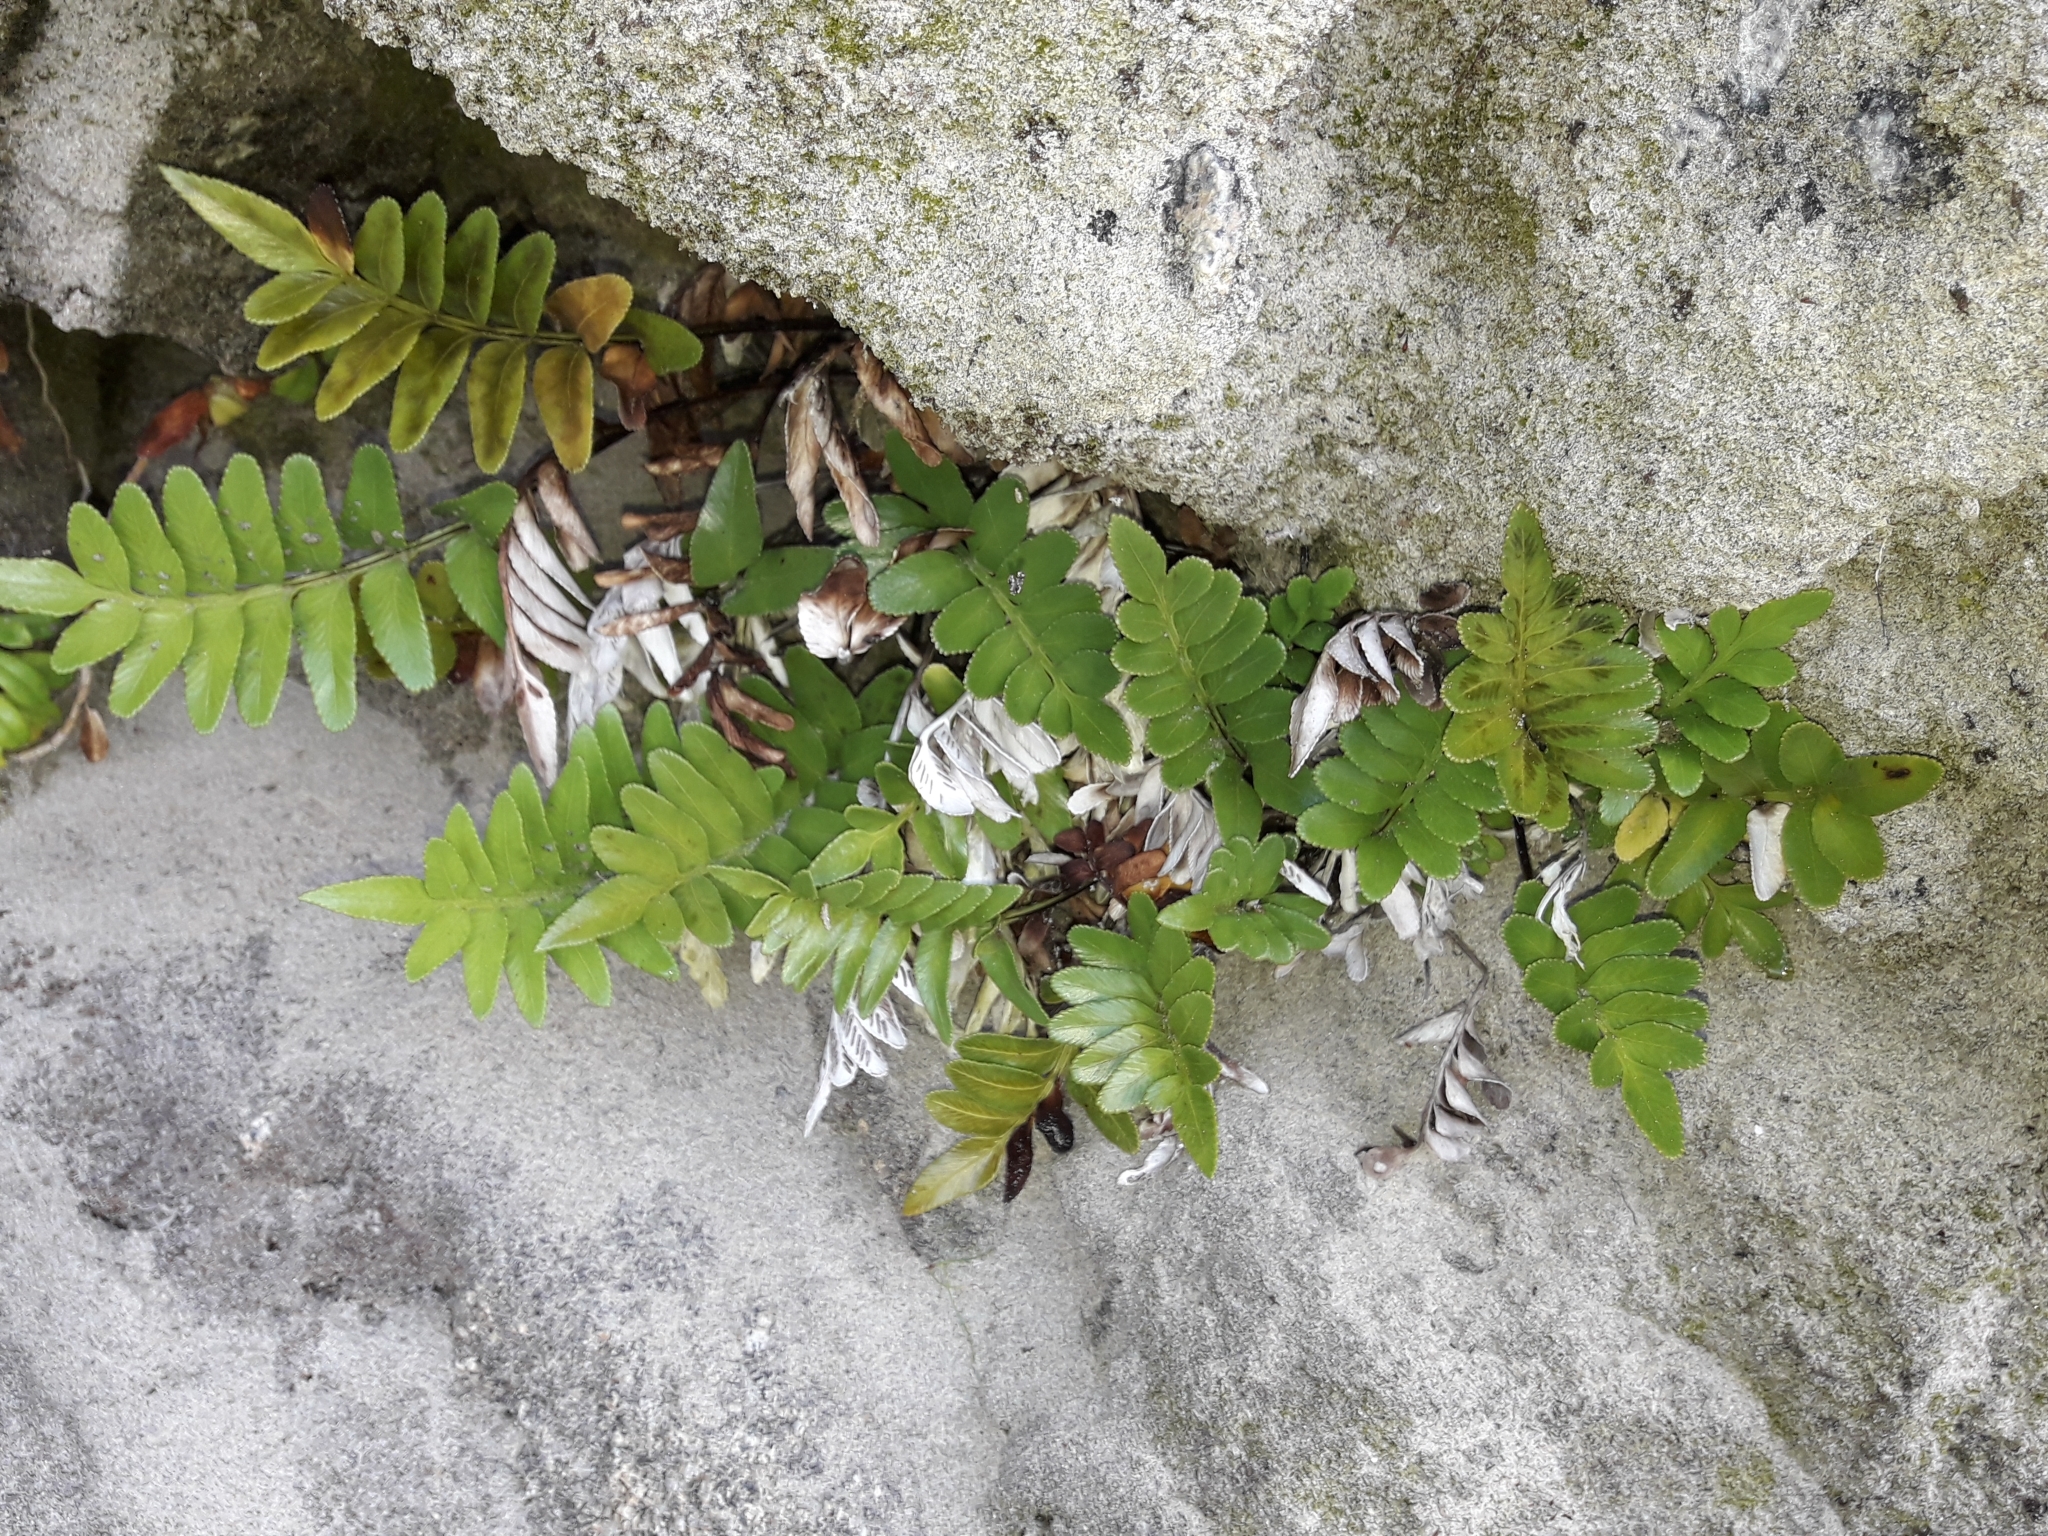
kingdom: Plantae
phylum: Tracheophyta
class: Polypodiopsida
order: Polypodiales
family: Aspleniaceae
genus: Asplenium
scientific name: Asplenium obtusatum
